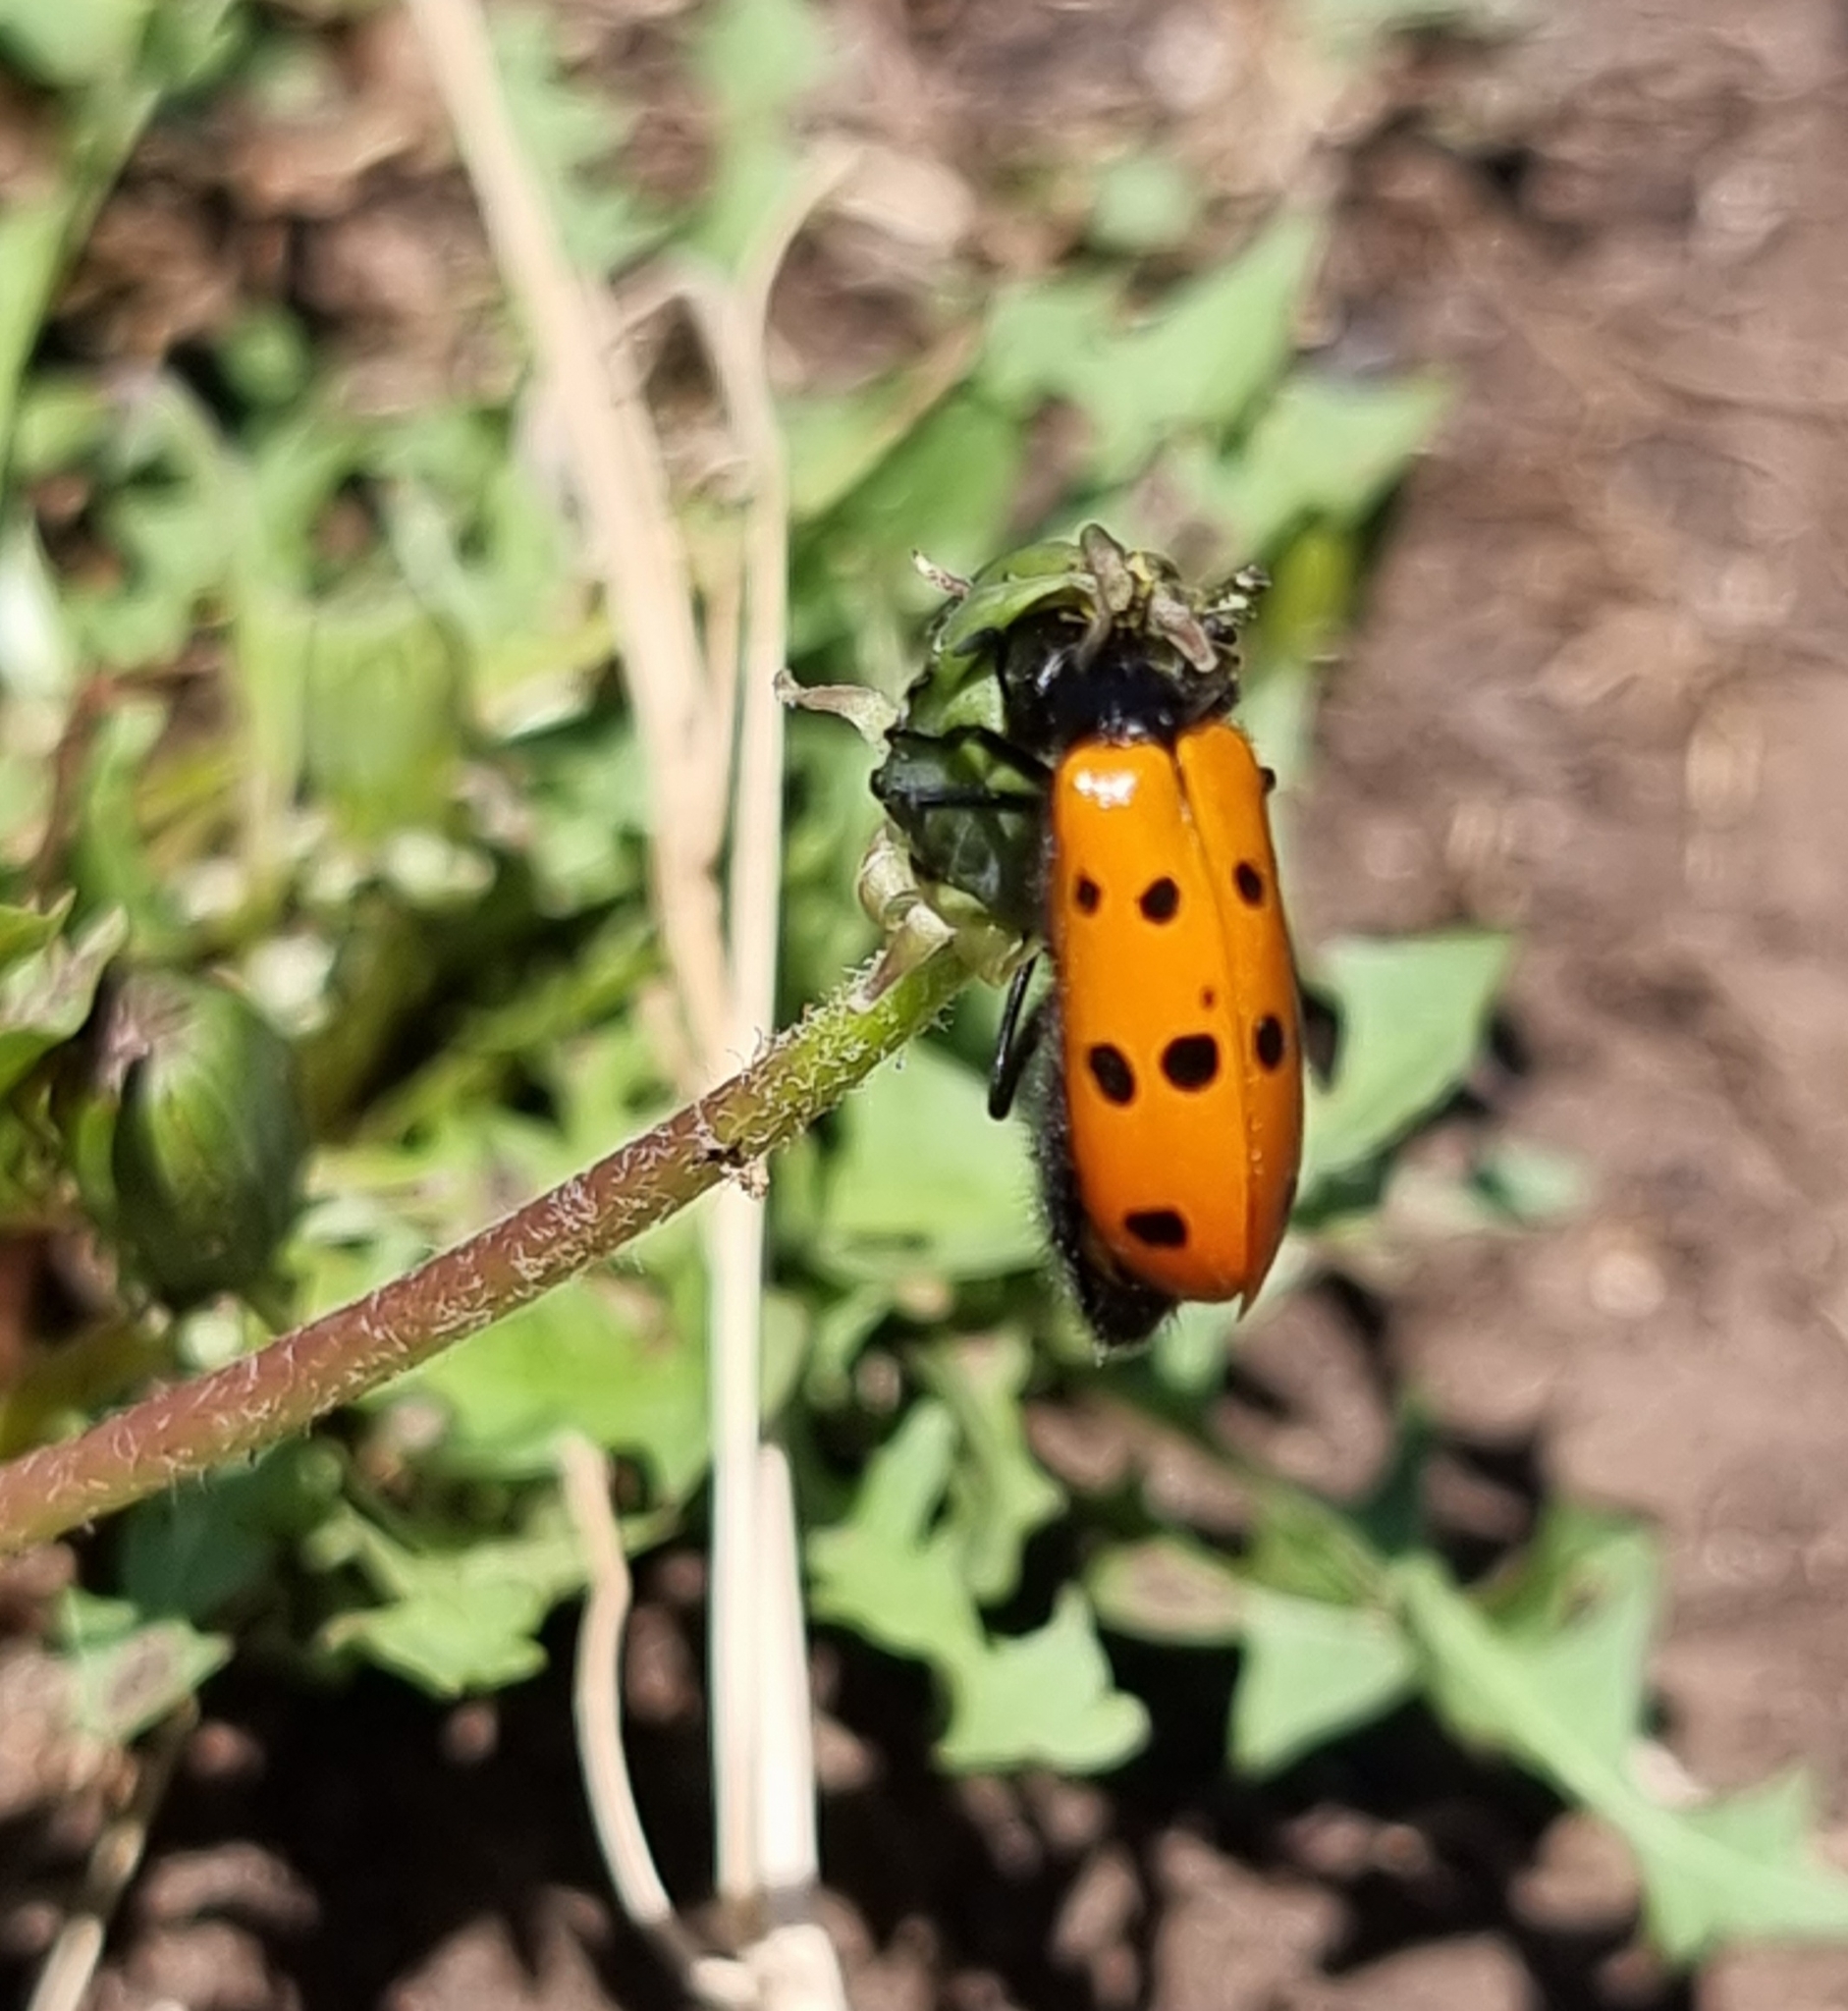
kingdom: Animalia
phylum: Arthropoda
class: Insecta
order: Coleoptera
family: Meloidae
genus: Mylabris
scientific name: Mylabris fabricii
